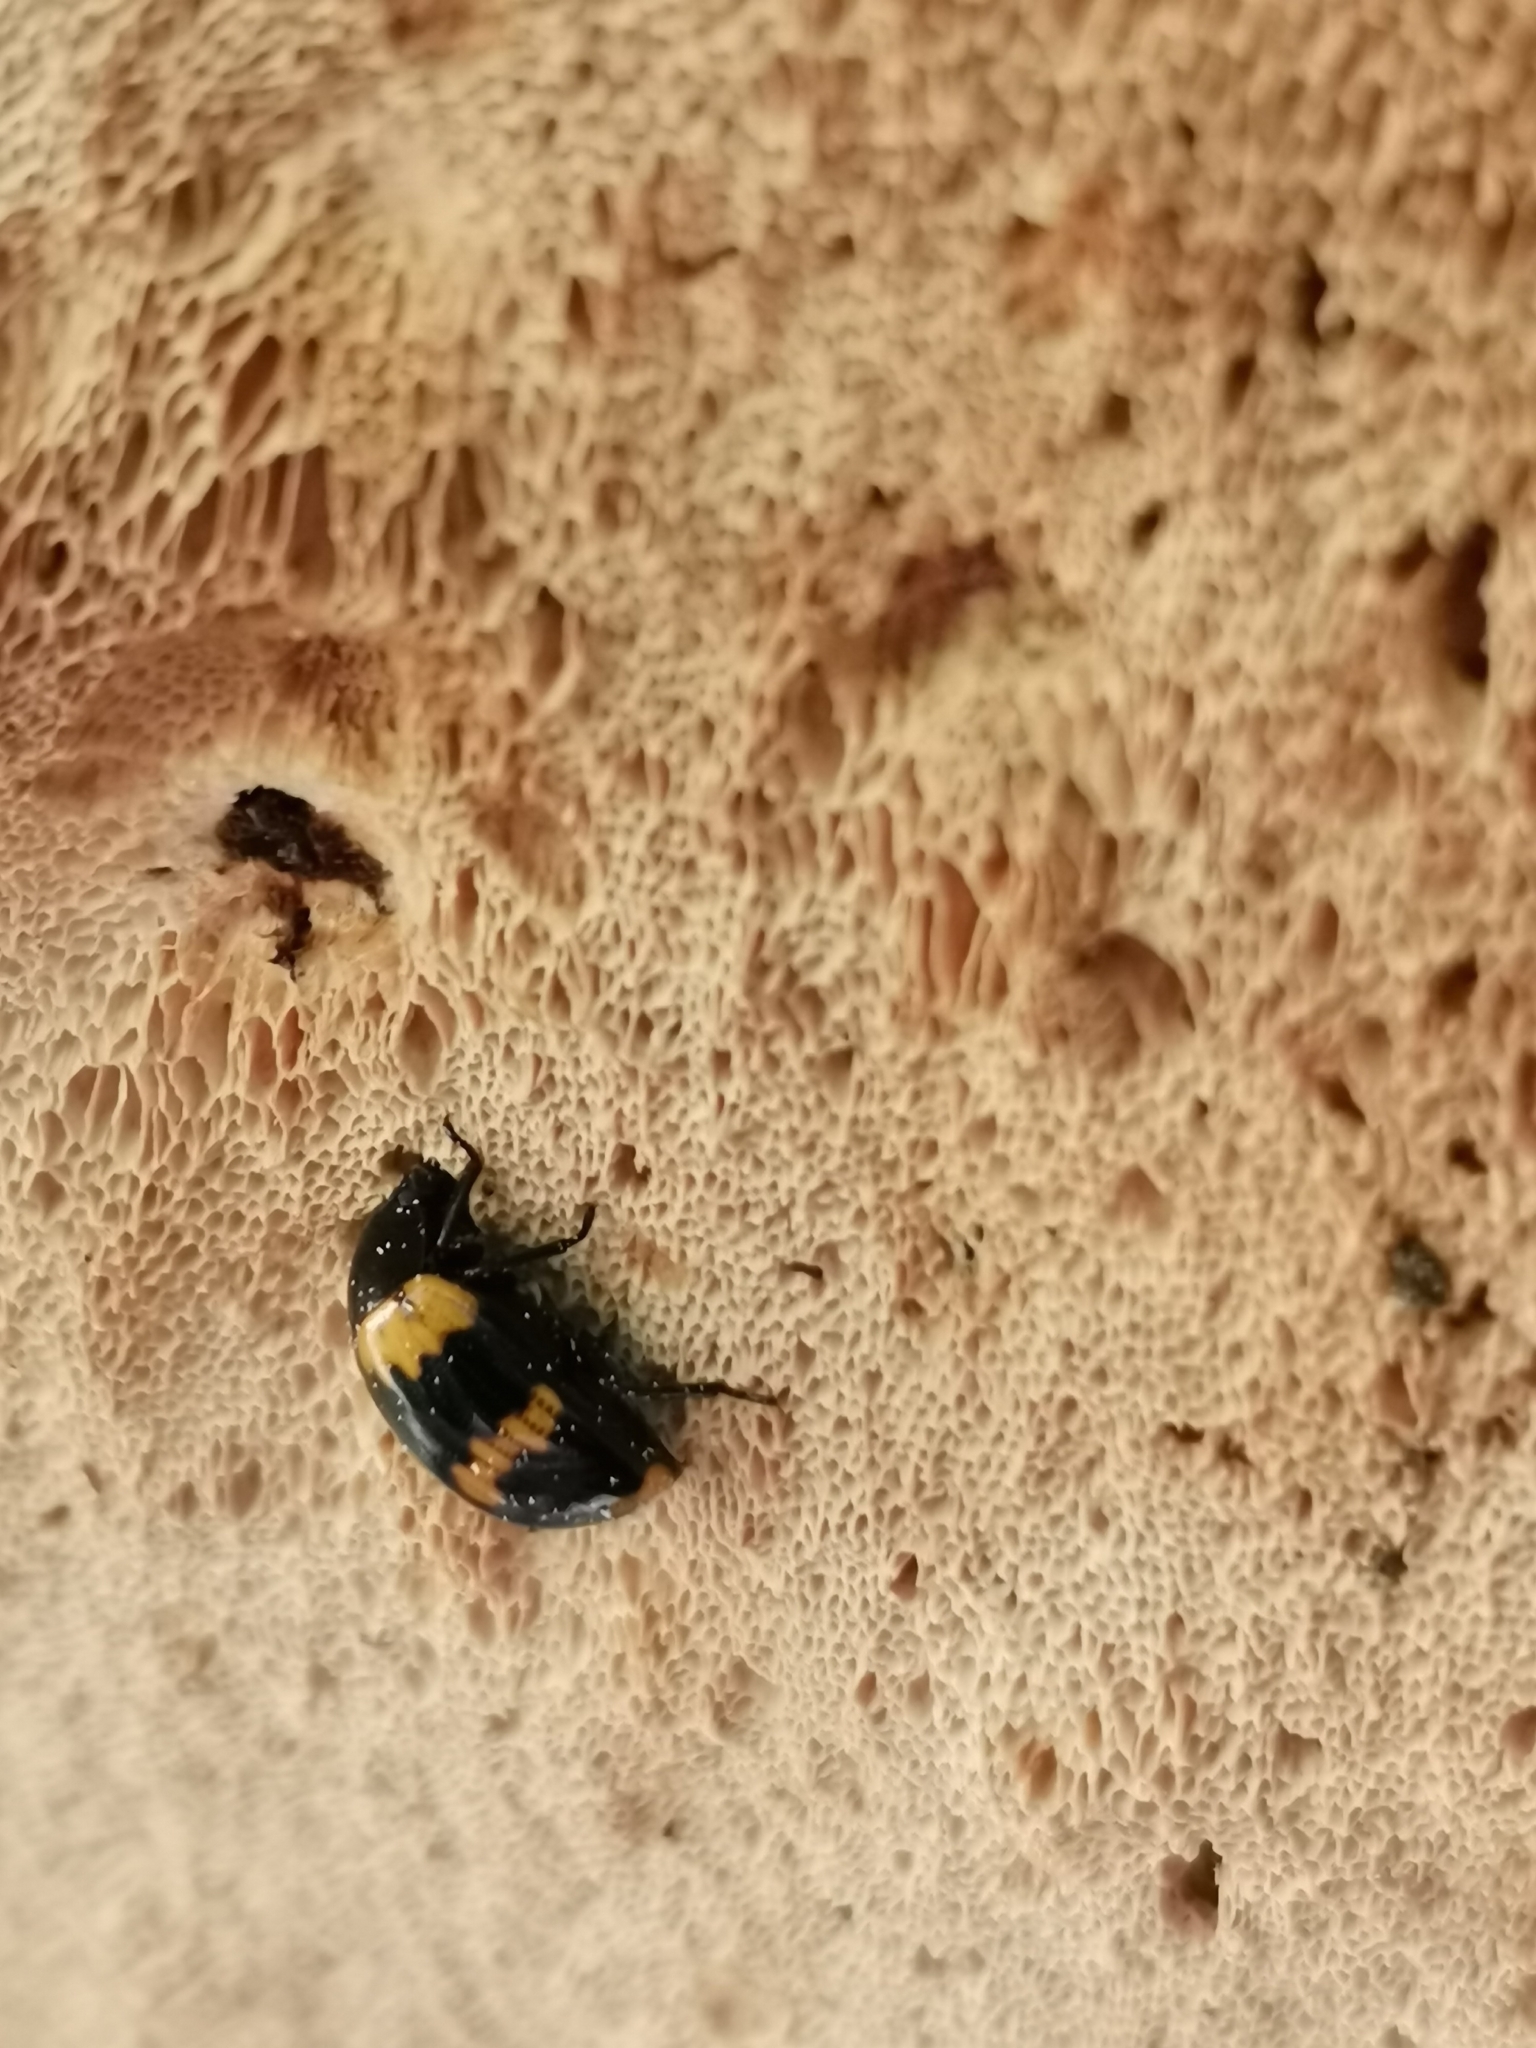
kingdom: Animalia
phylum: Arthropoda
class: Insecta
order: Coleoptera
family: Tenebrionidae
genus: Diaperis
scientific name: Diaperis boleti
